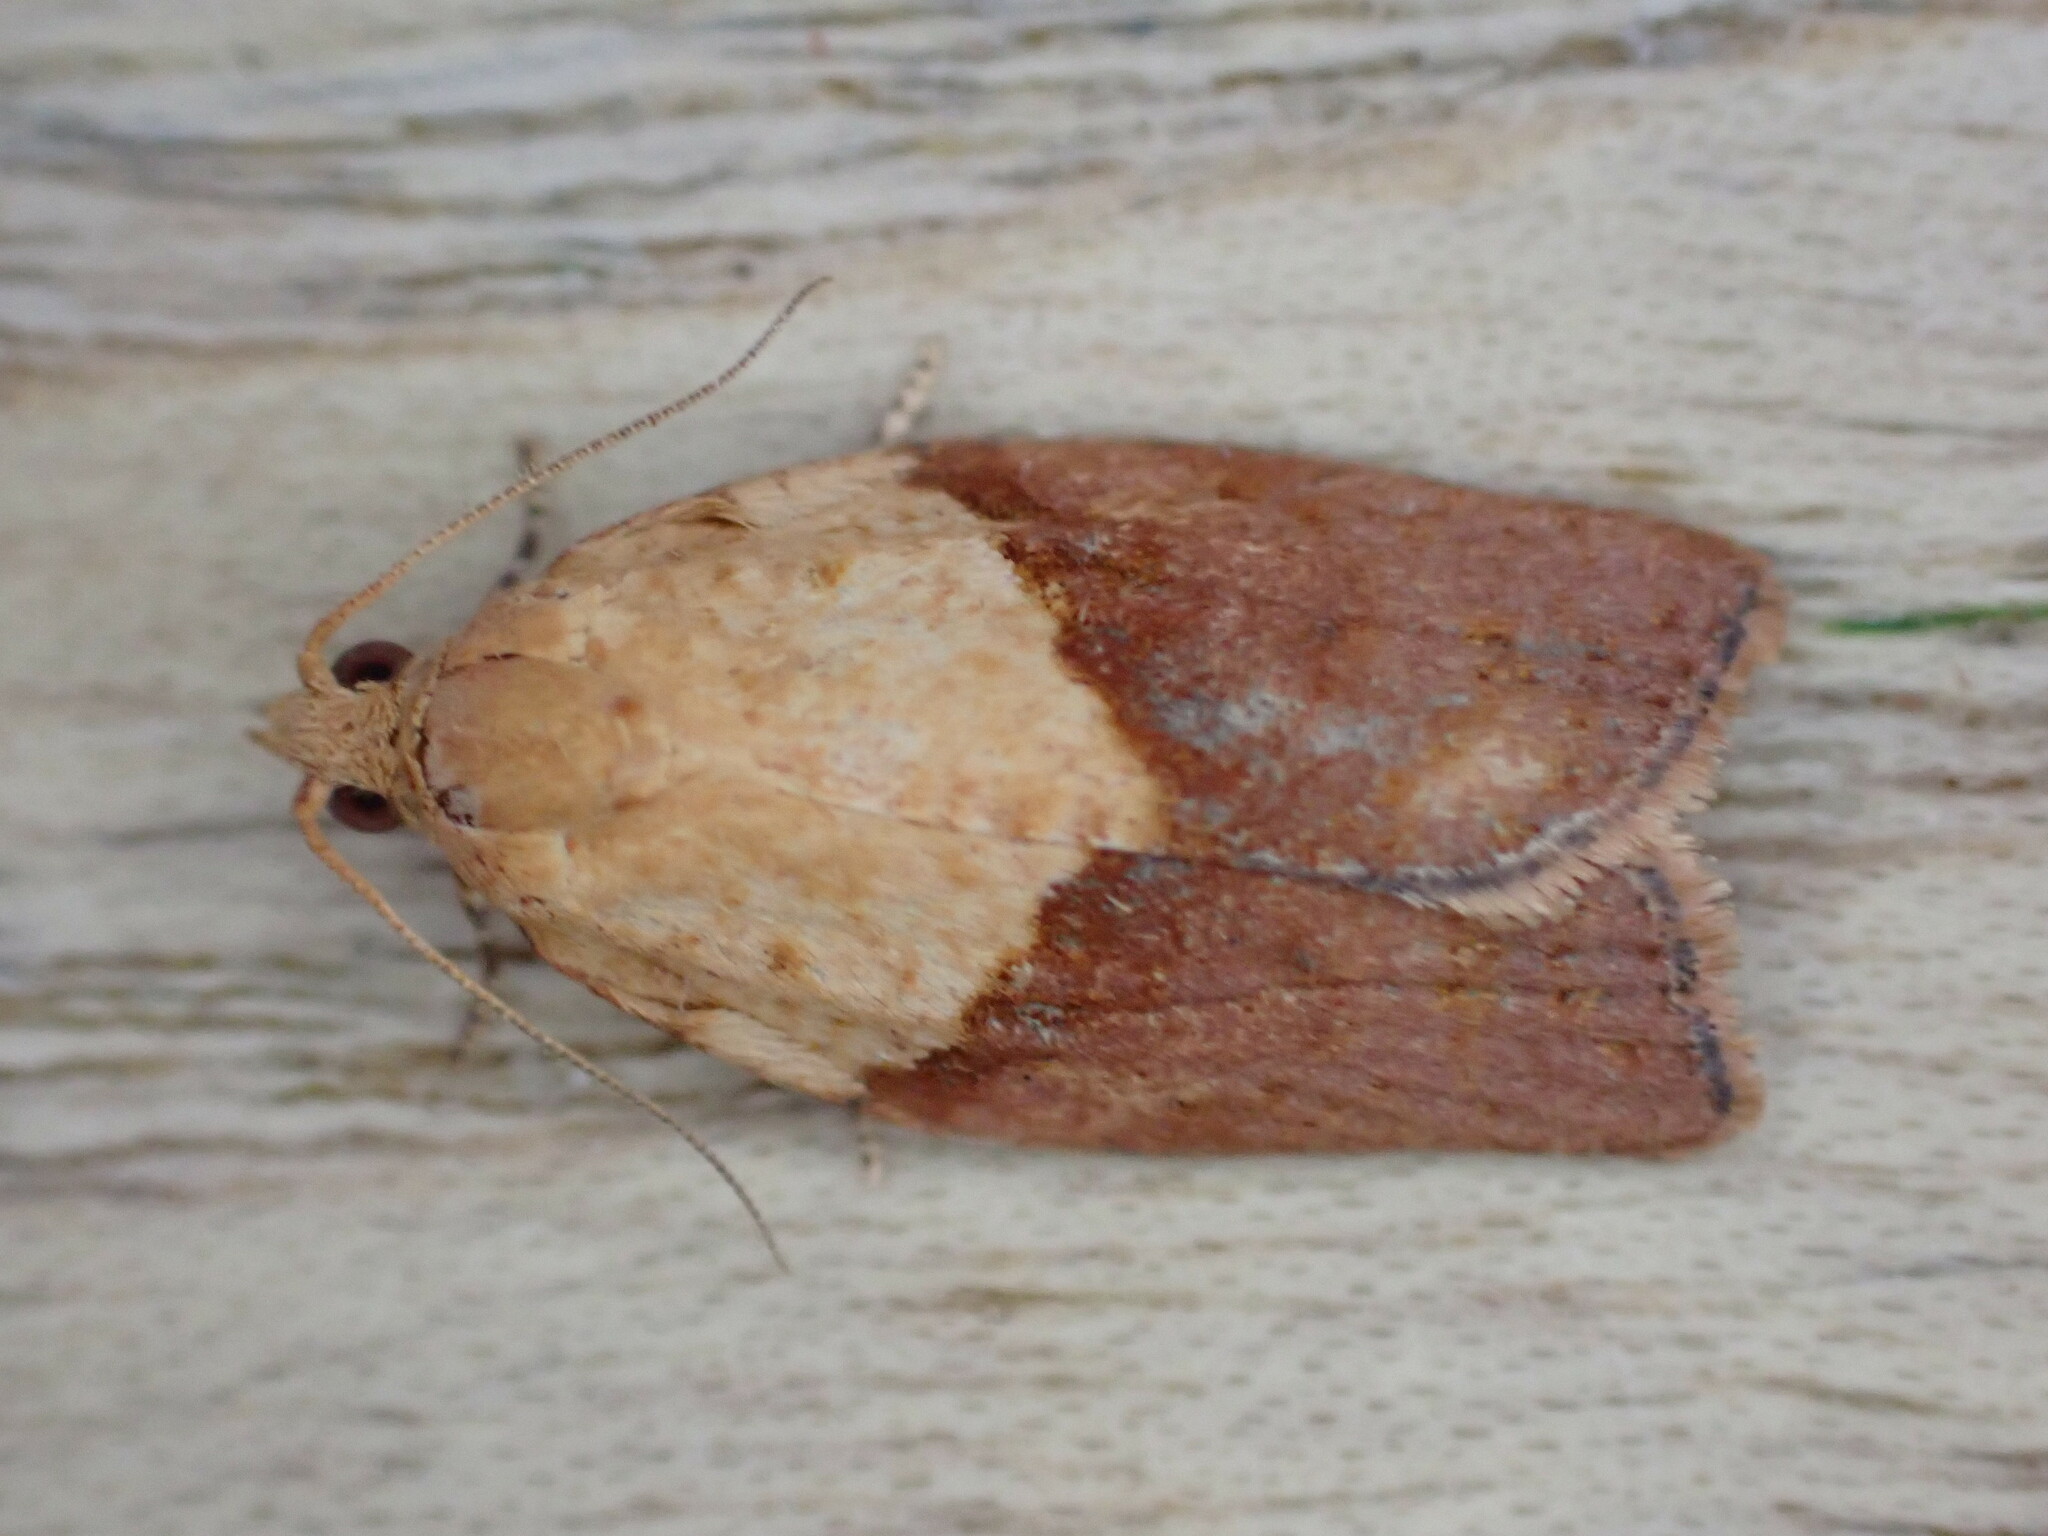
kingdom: Animalia
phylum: Arthropoda
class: Insecta
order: Lepidoptera
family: Tortricidae
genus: Epiphyas
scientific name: Epiphyas postvittana
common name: Light brown apple moth
